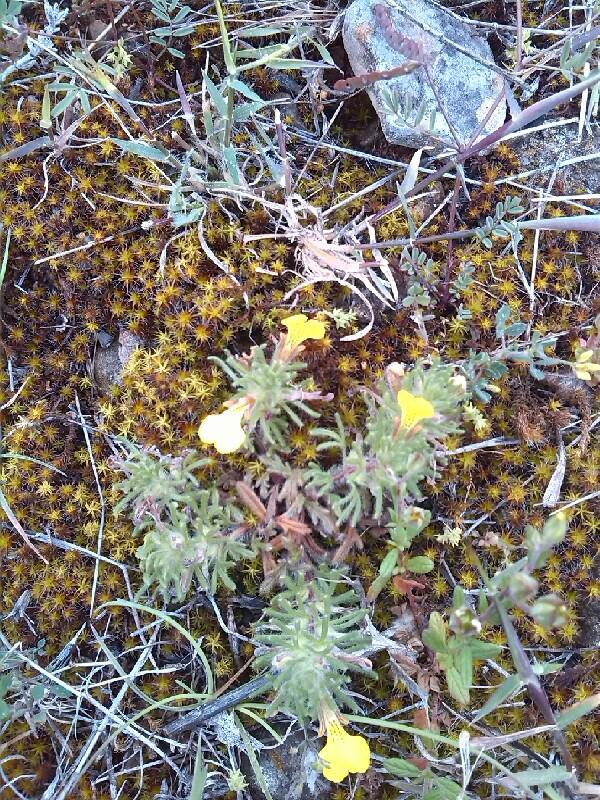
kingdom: Plantae
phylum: Tracheophyta
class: Magnoliopsida
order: Lamiales
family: Lamiaceae
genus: Ajuga
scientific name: Ajuga chamaepitys
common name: Ground-pine
